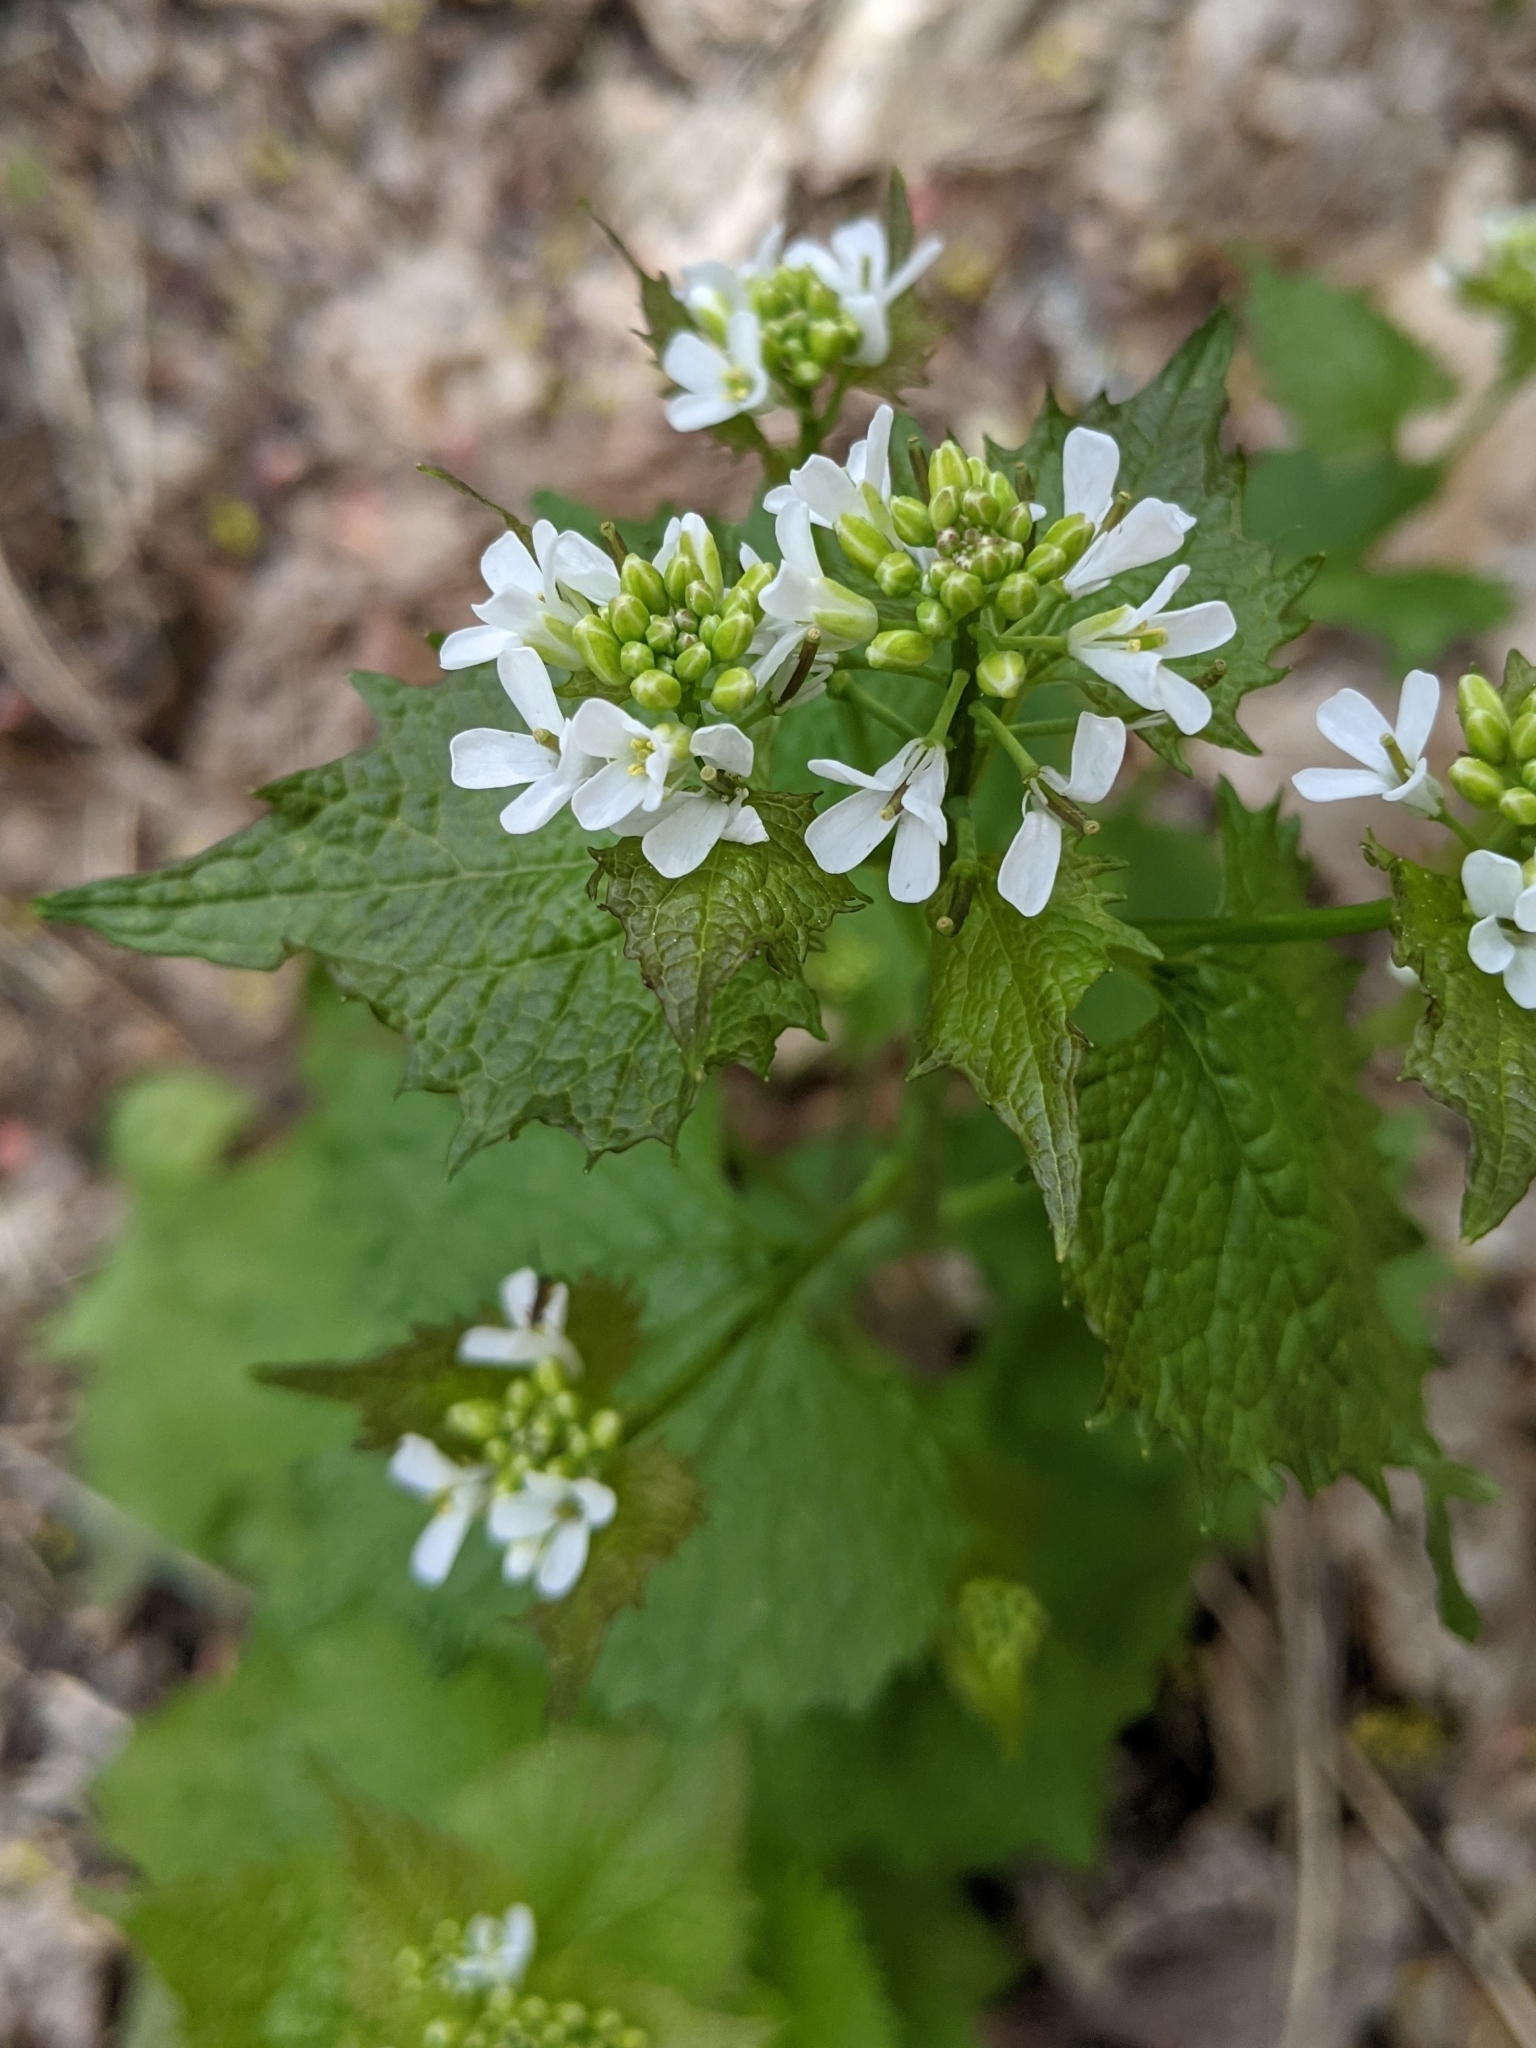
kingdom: Plantae
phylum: Tracheophyta
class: Magnoliopsida
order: Brassicales
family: Brassicaceae
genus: Alliaria
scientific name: Alliaria petiolata
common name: Garlic mustard
